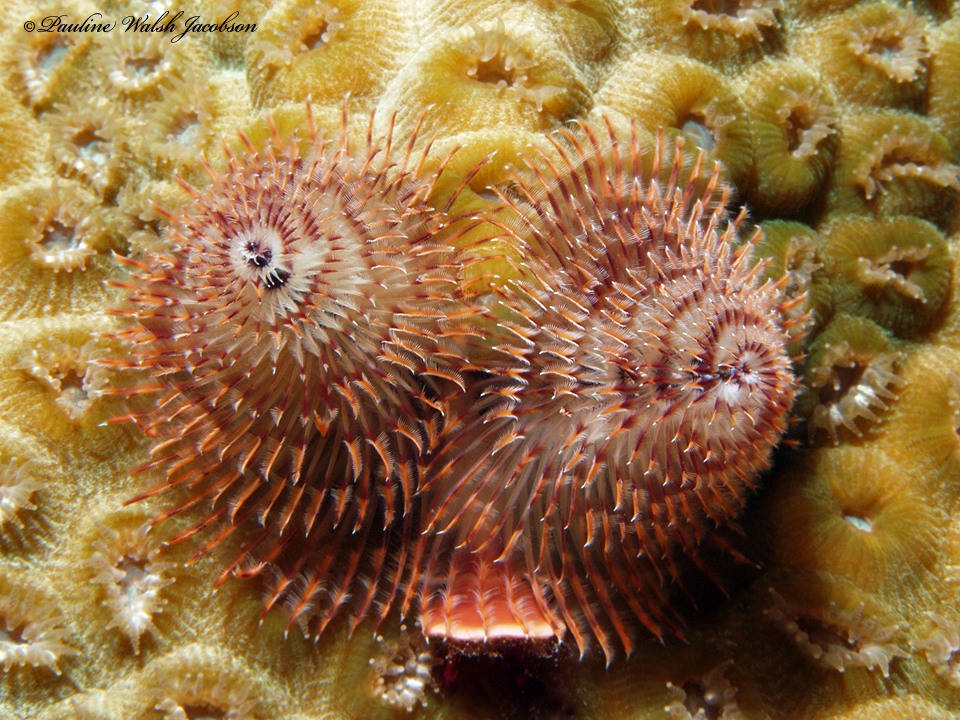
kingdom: Animalia
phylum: Annelida
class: Polychaeta
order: Sabellida
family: Serpulidae
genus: Spirobranchus
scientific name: Spirobranchus giganteus
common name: Christmas tree worm
